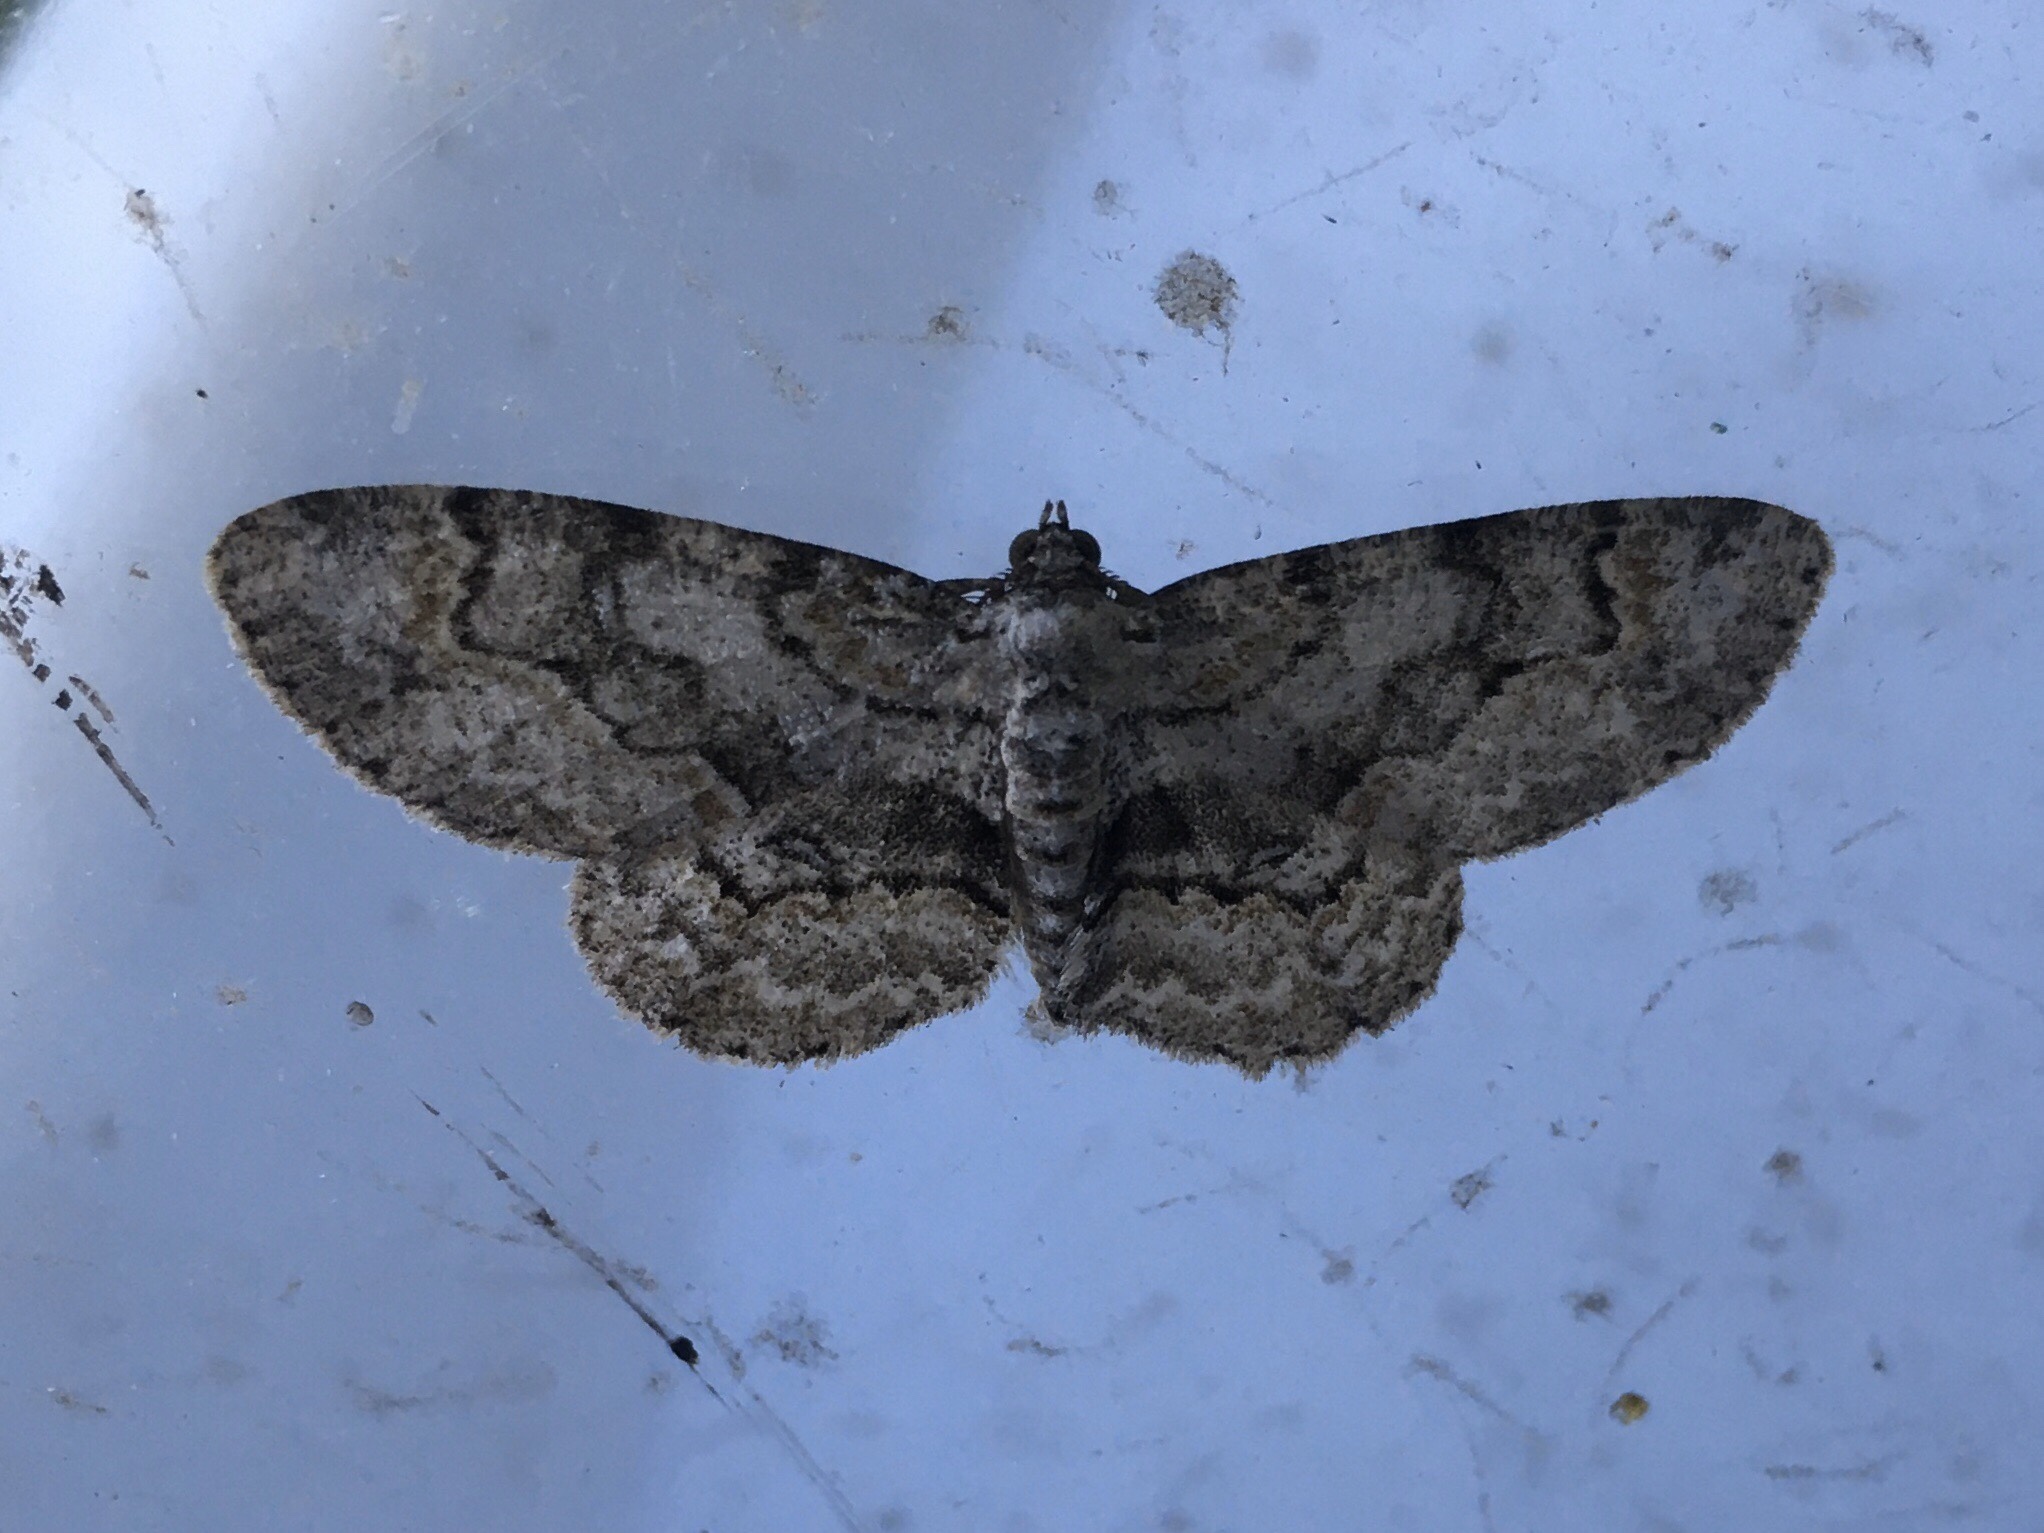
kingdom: Animalia
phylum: Arthropoda
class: Insecta
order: Lepidoptera
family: Geometridae
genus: Iridopsis
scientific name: Iridopsis ephyraria
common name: Pale-winged gray
